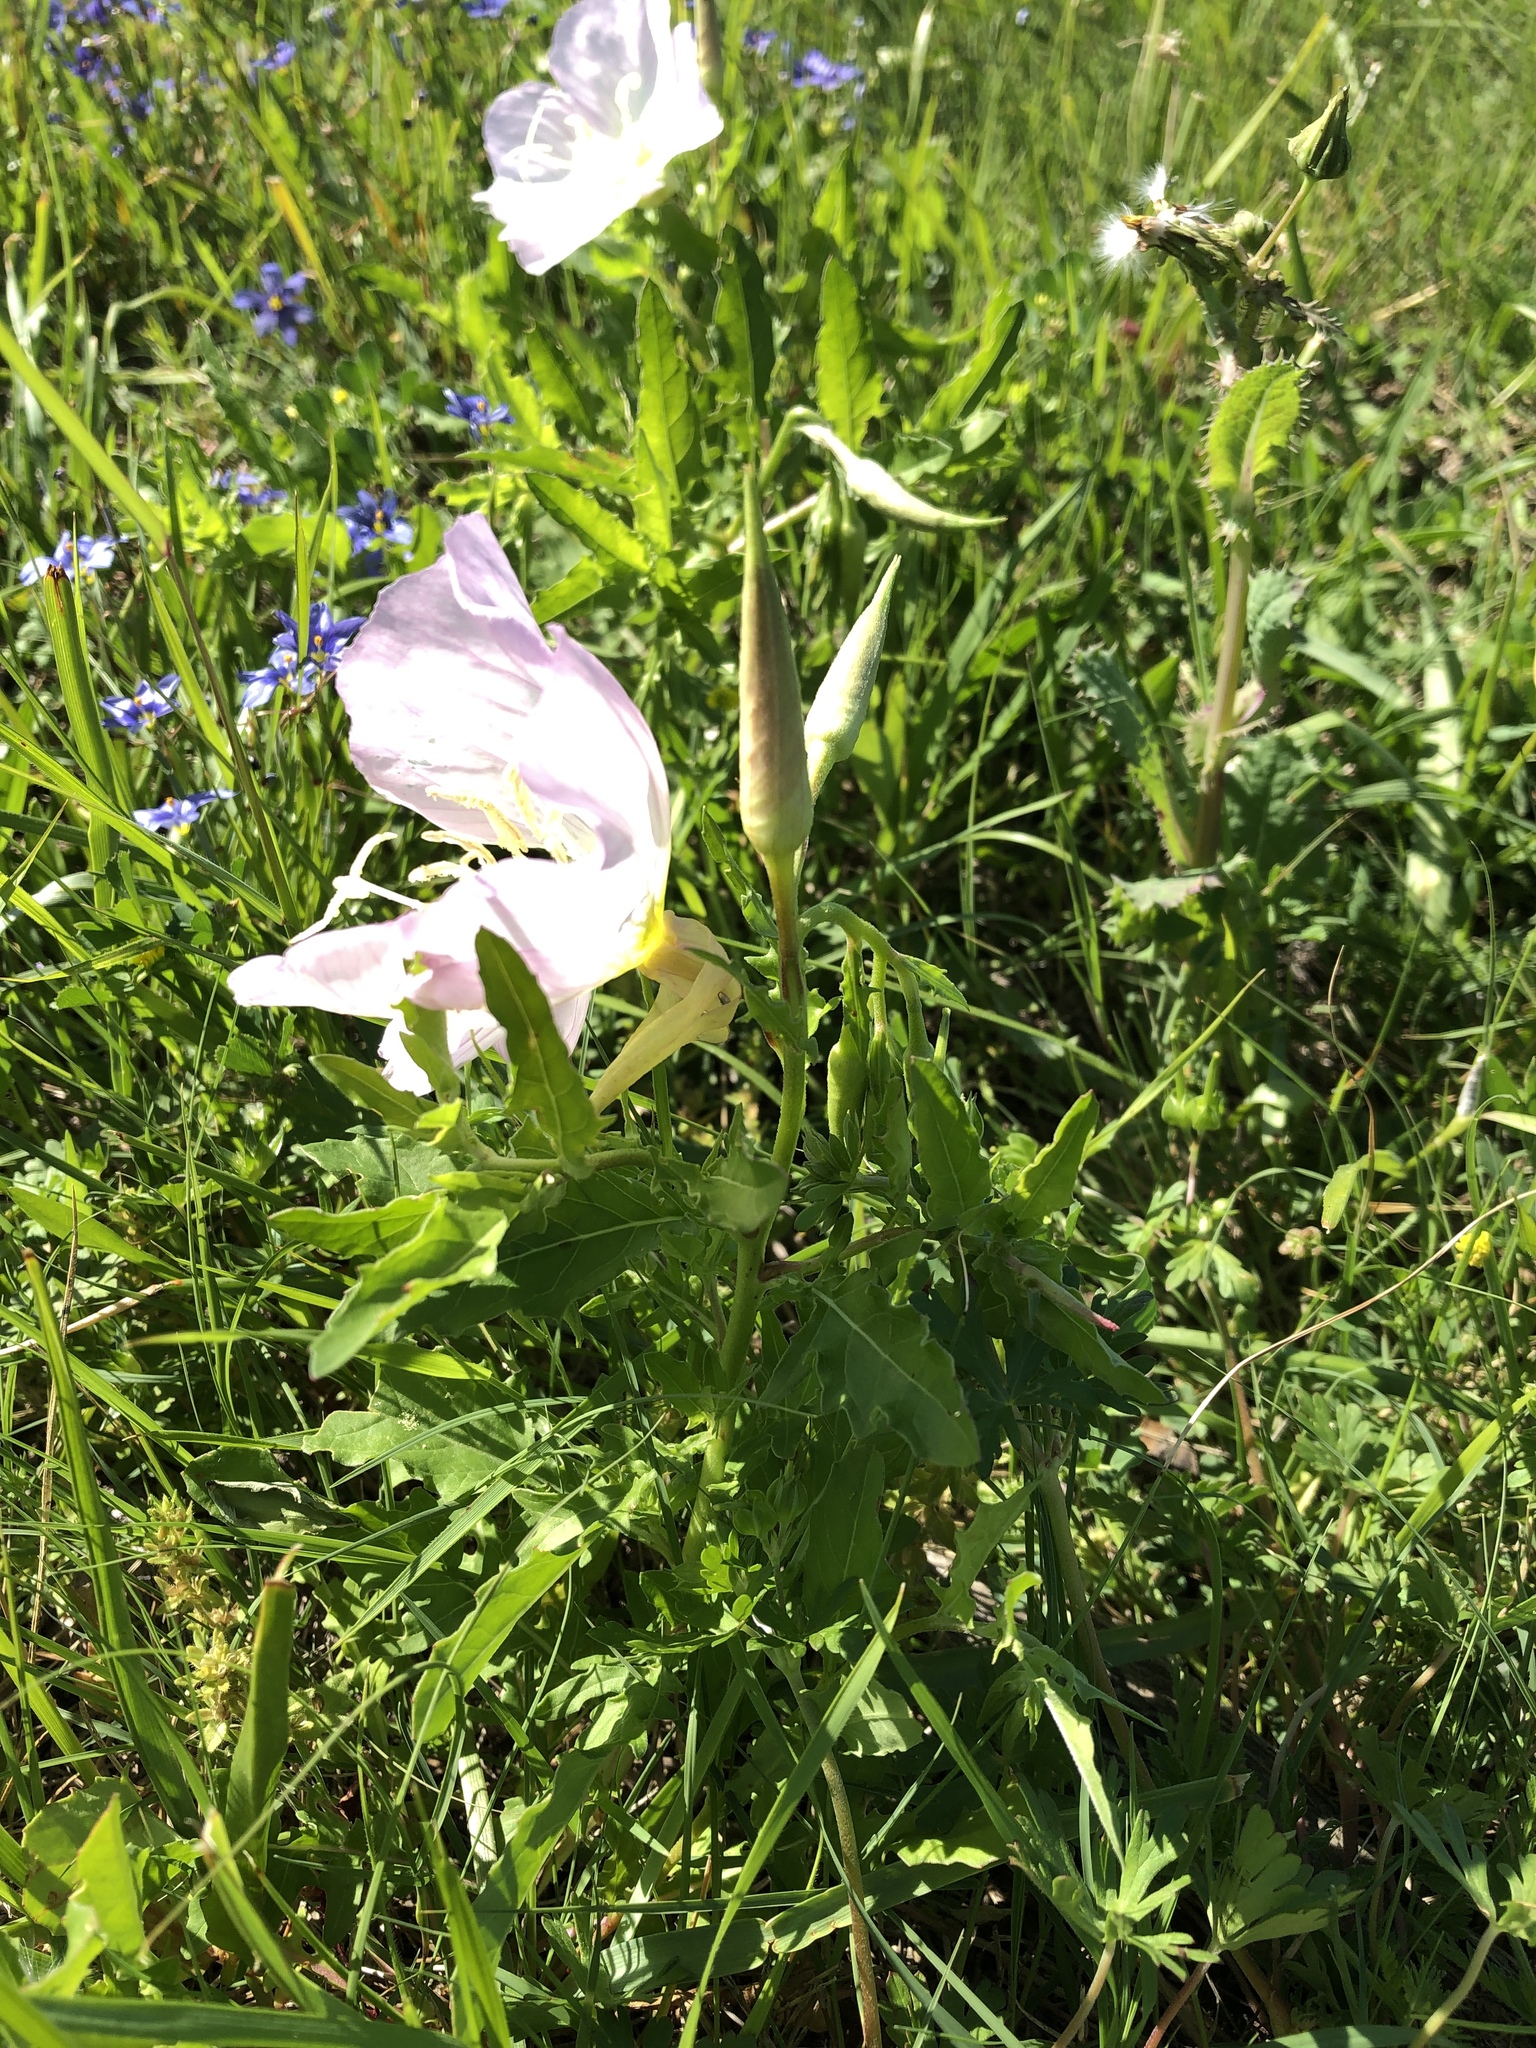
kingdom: Plantae
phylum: Tracheophyta
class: Magnoliopsida
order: Myrtales
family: Onagraceae
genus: Oenothera
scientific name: Oenothera speciosa
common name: White evening-primrose
